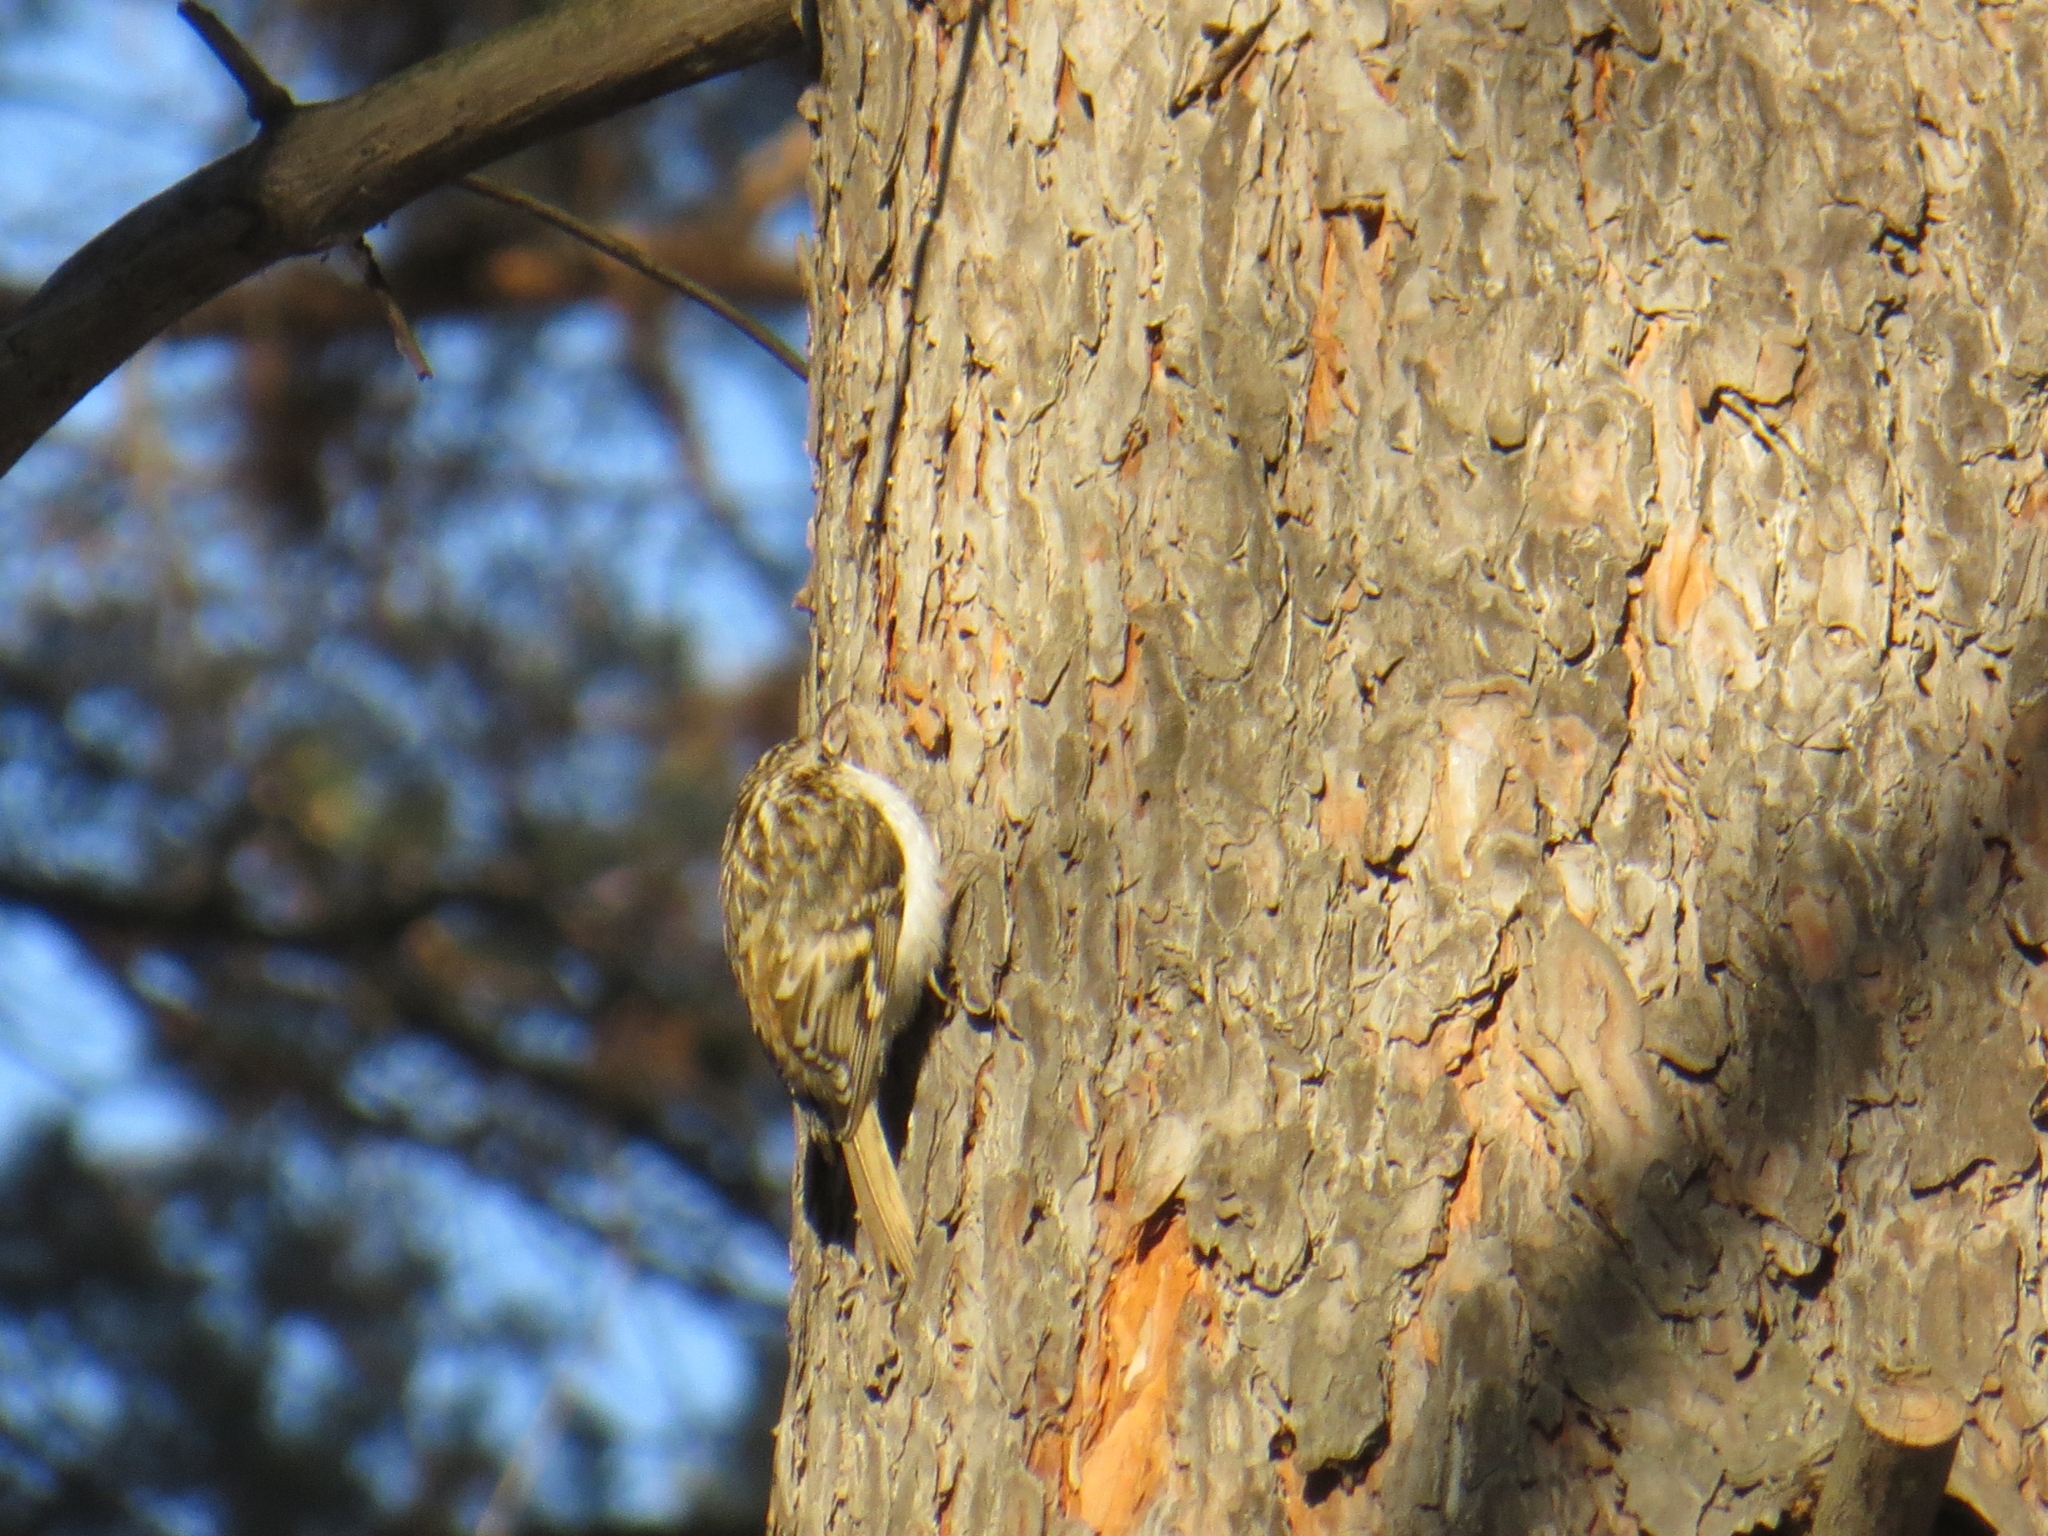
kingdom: Animalia
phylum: Chordata
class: Aves
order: Passeriformes
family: Certhiidae
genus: Certhia
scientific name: Certhia familiaris
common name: Eurasian treecreeper
